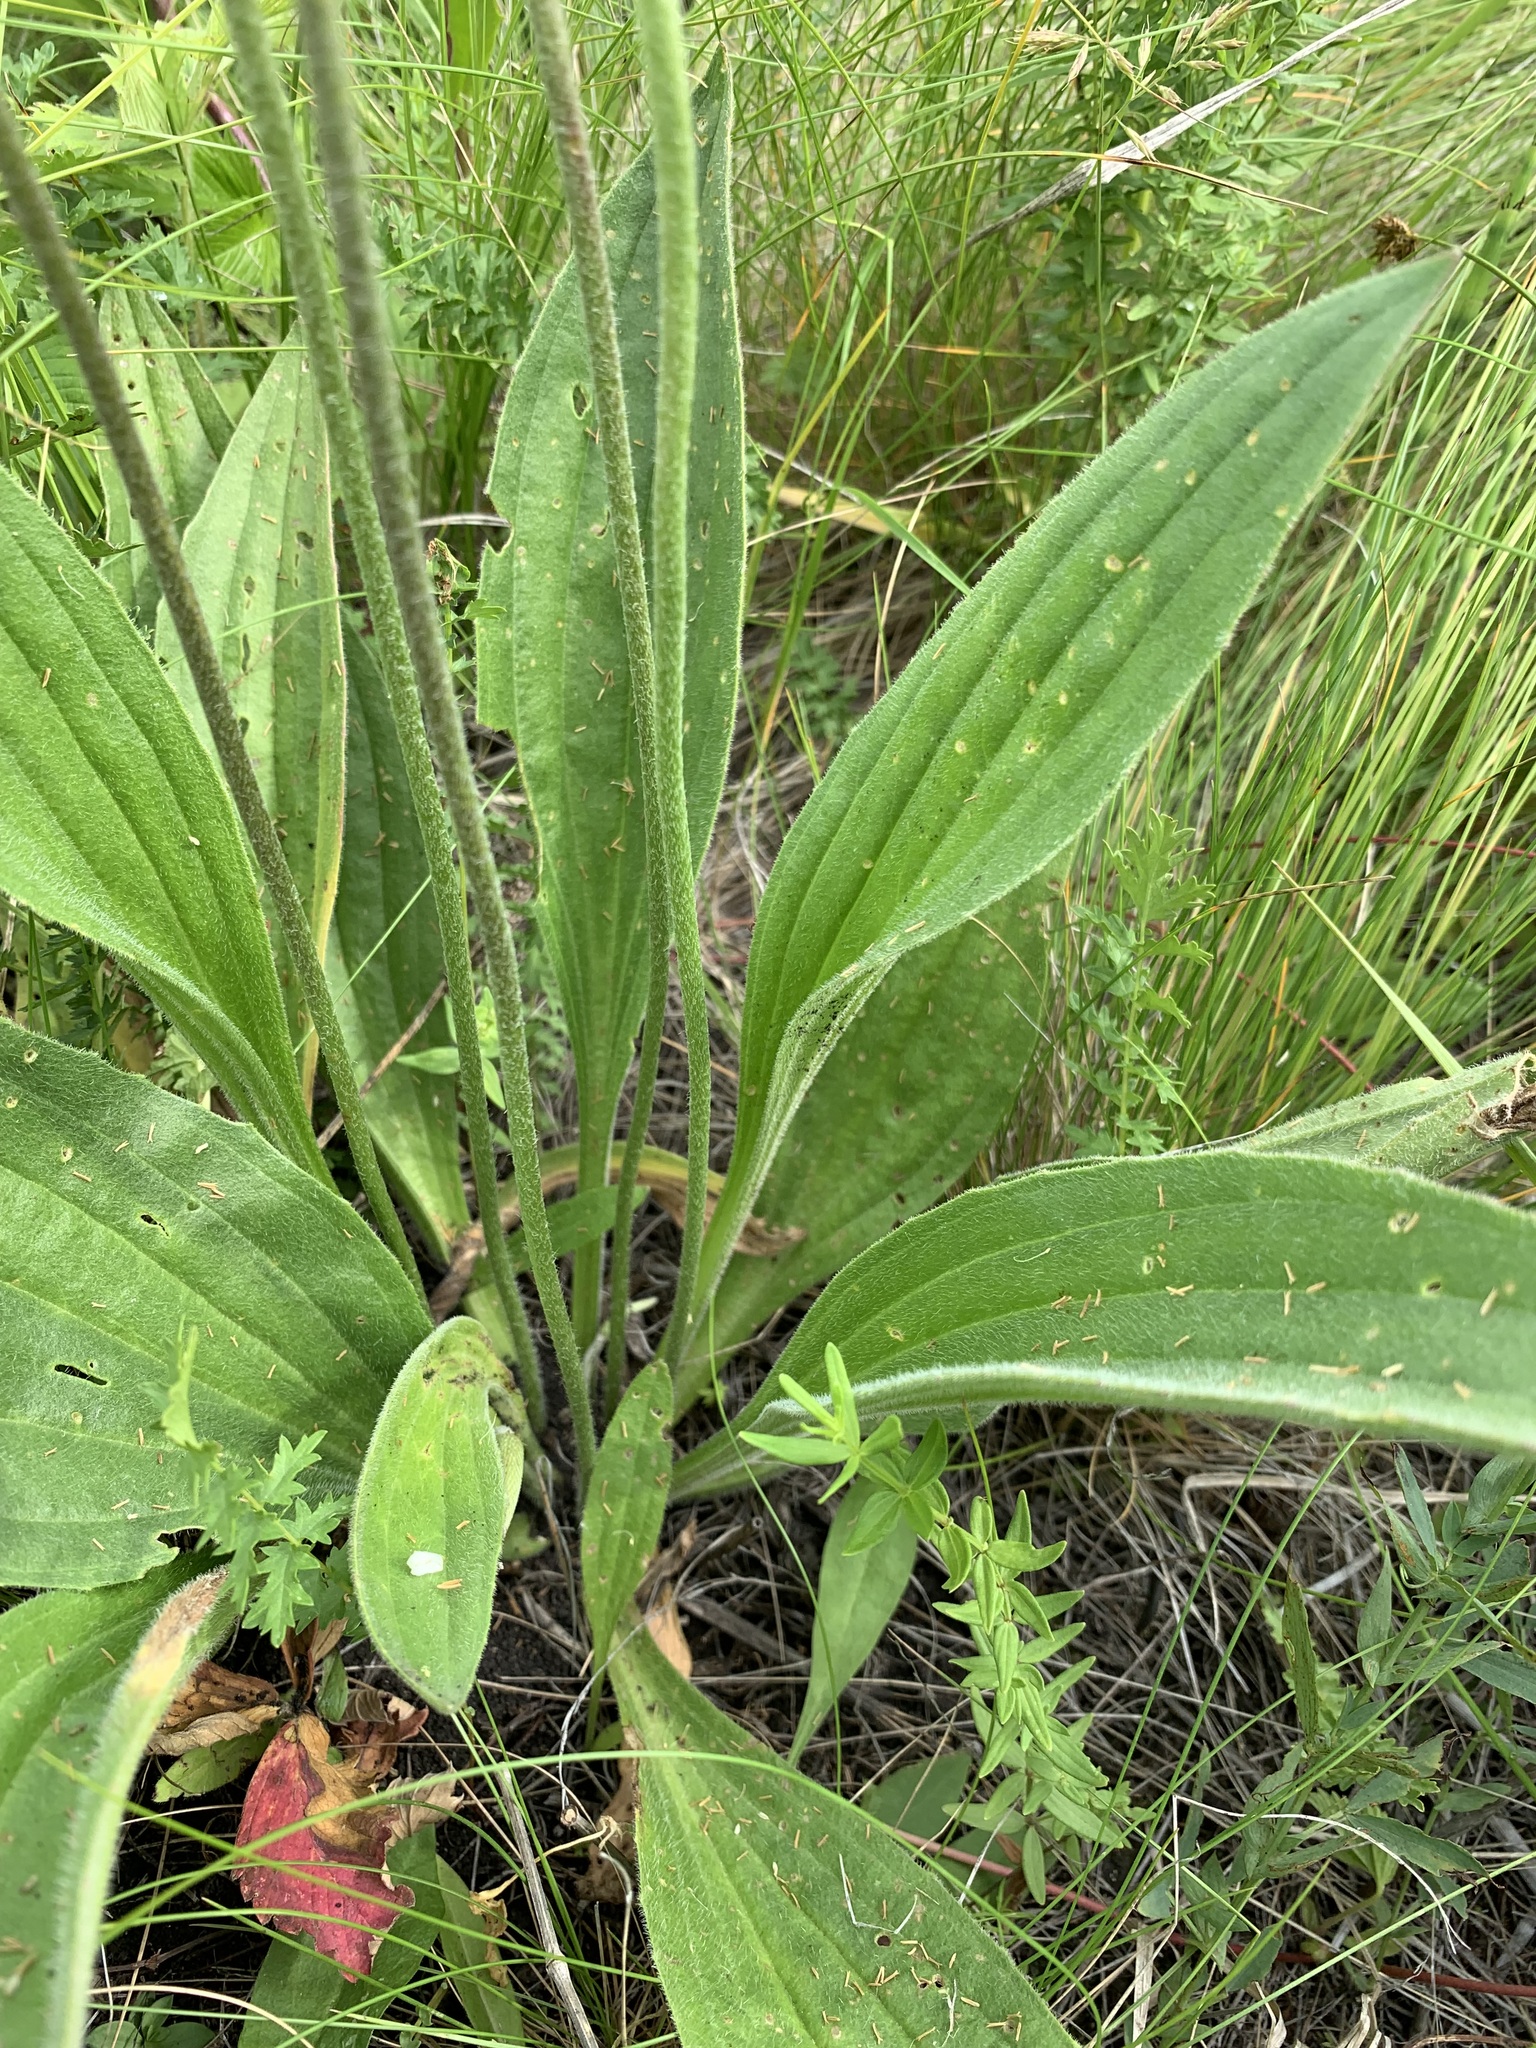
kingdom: Plantae
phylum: Tracheophyta
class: Magnoliopsida
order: Lamiales
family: Plantaginaceae
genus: Plantago
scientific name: Plantago urvillei
